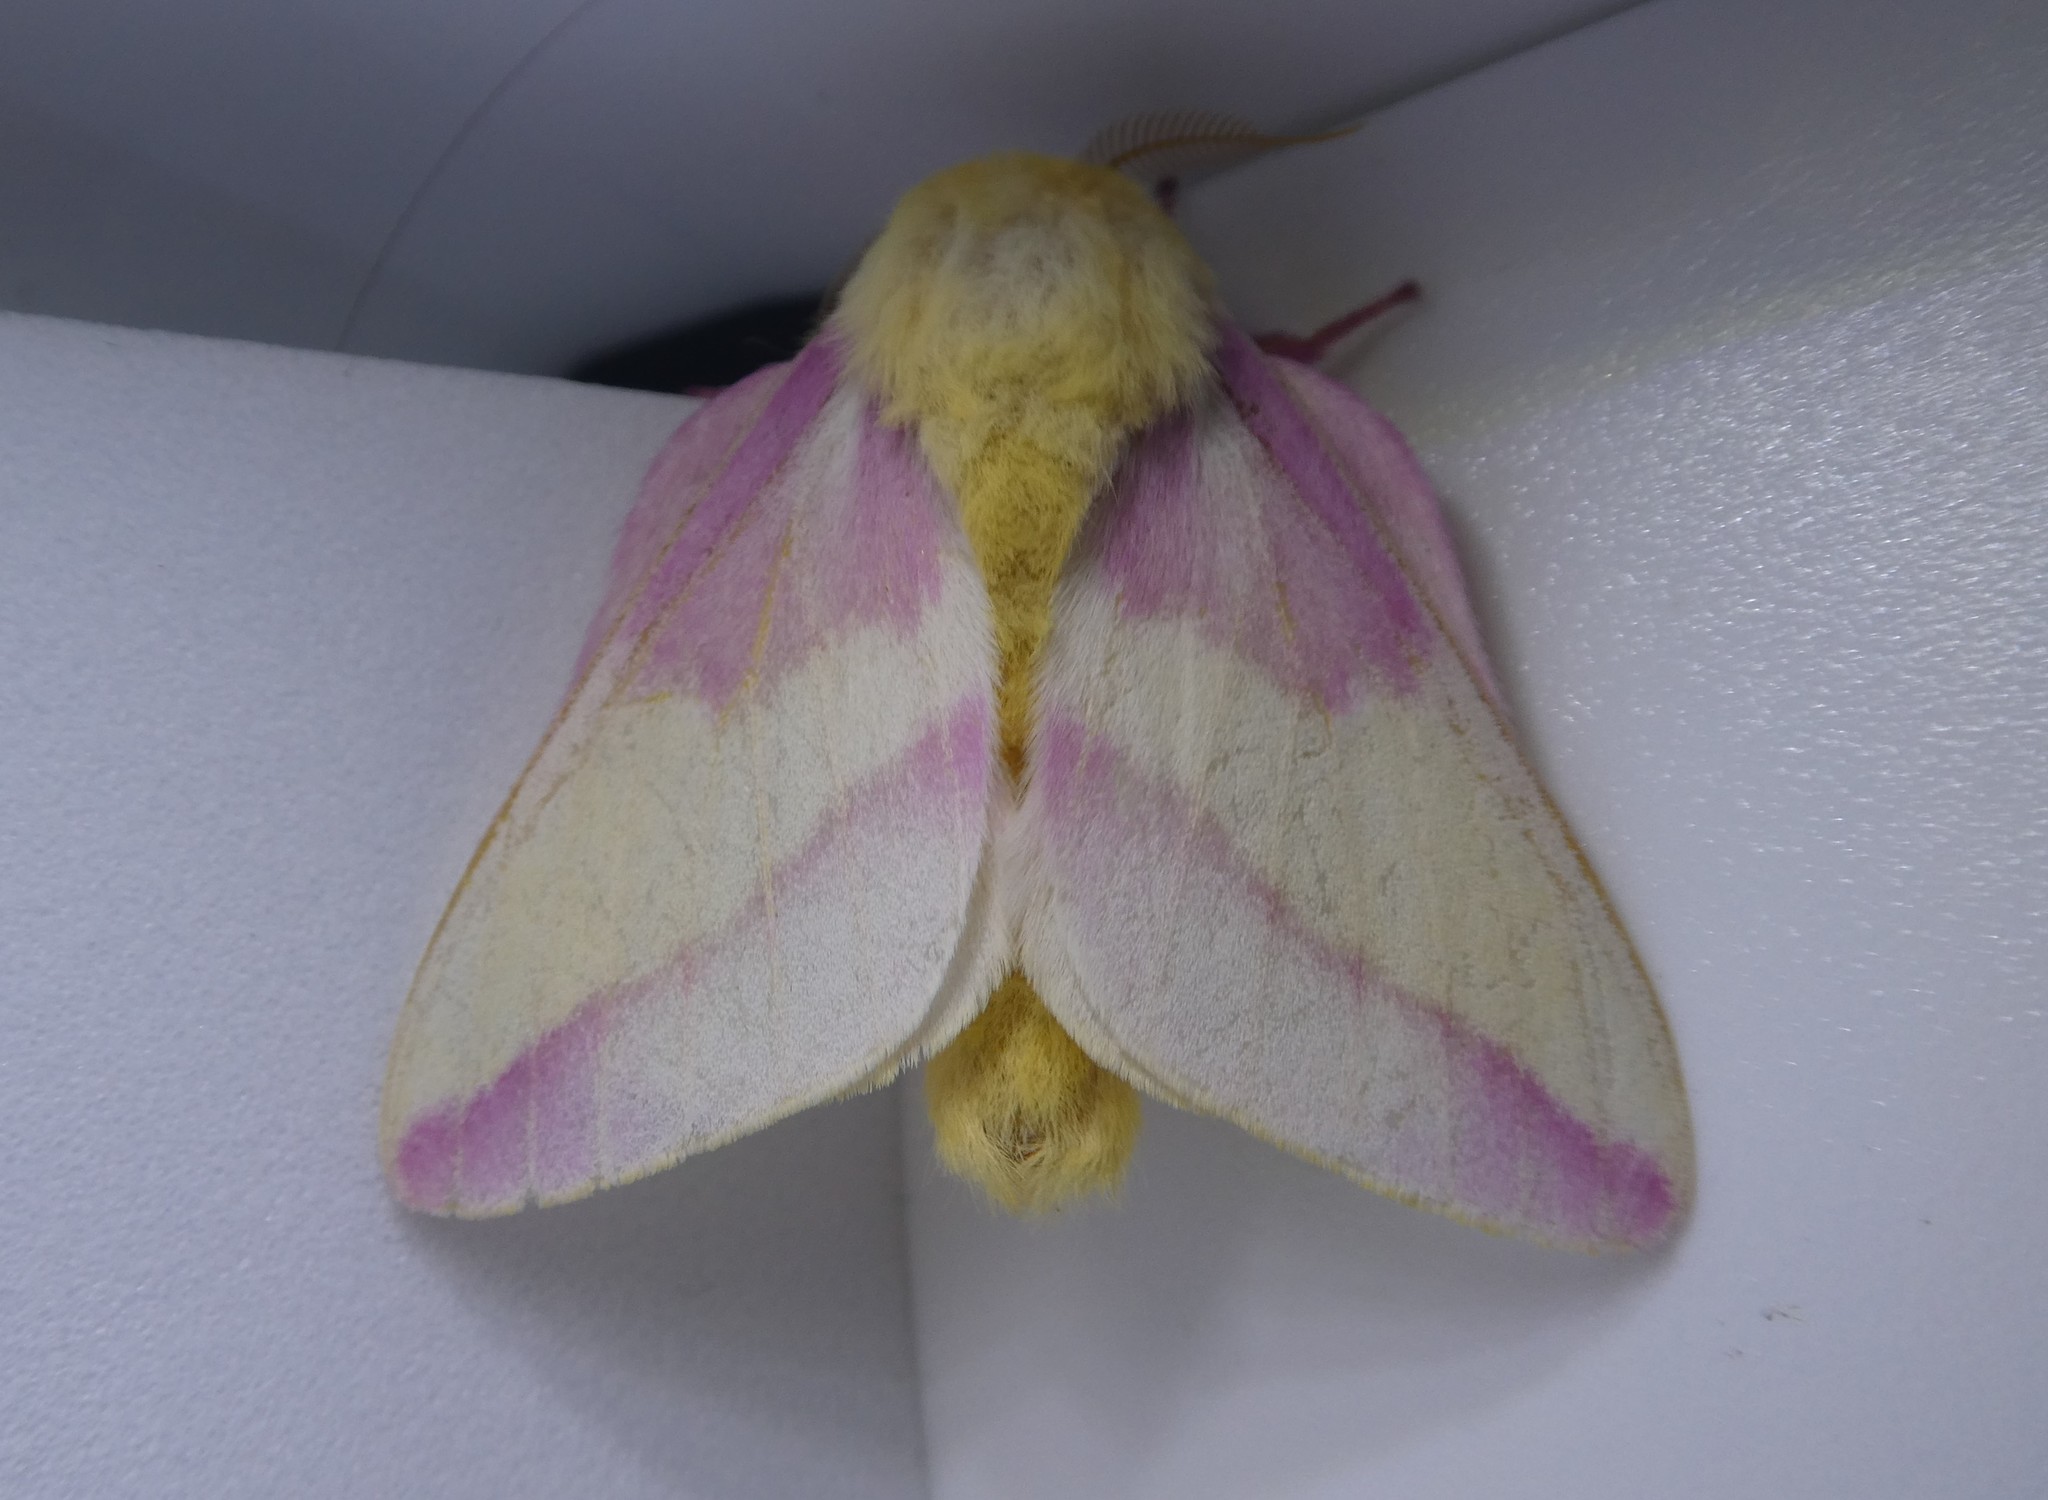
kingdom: Animalia
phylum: Arthropoda
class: Insecta
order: Lepidoptera
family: Saturniidae
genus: Dryocampa
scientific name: Dryocampa rubicunda
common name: Rosy maple moth
